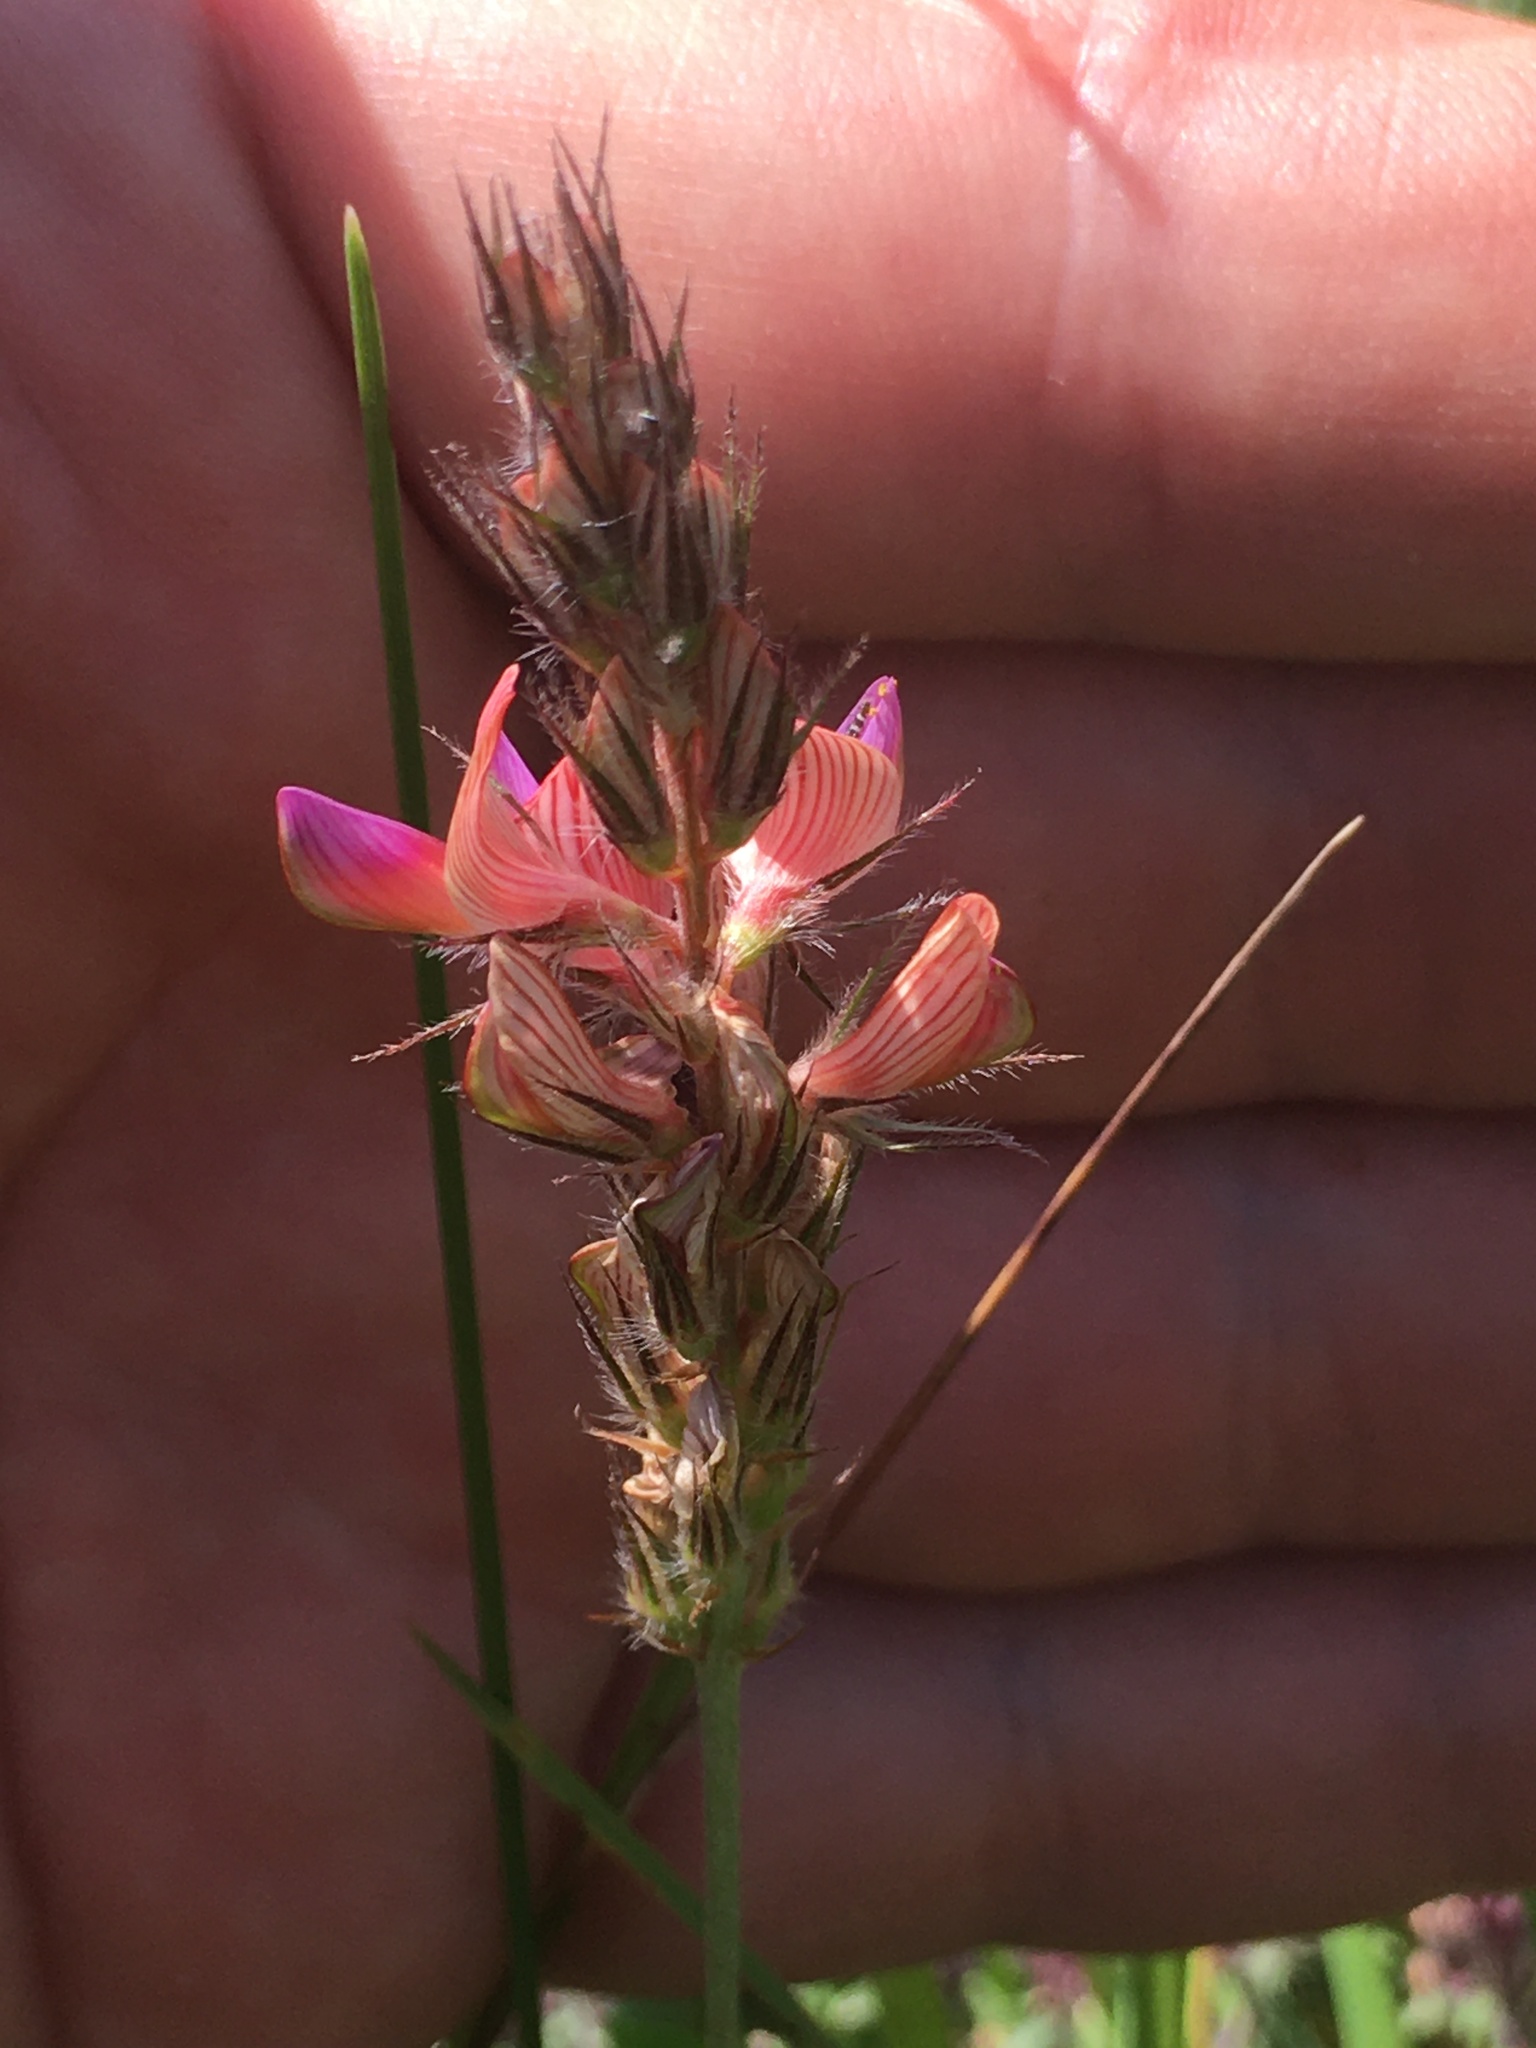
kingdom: Plantae
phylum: Tracheophyta
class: Magnoliopsida
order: Fabales
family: Fabaceae
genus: Onobrychis
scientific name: Onobrychis arenaria
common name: Sand esparcet
